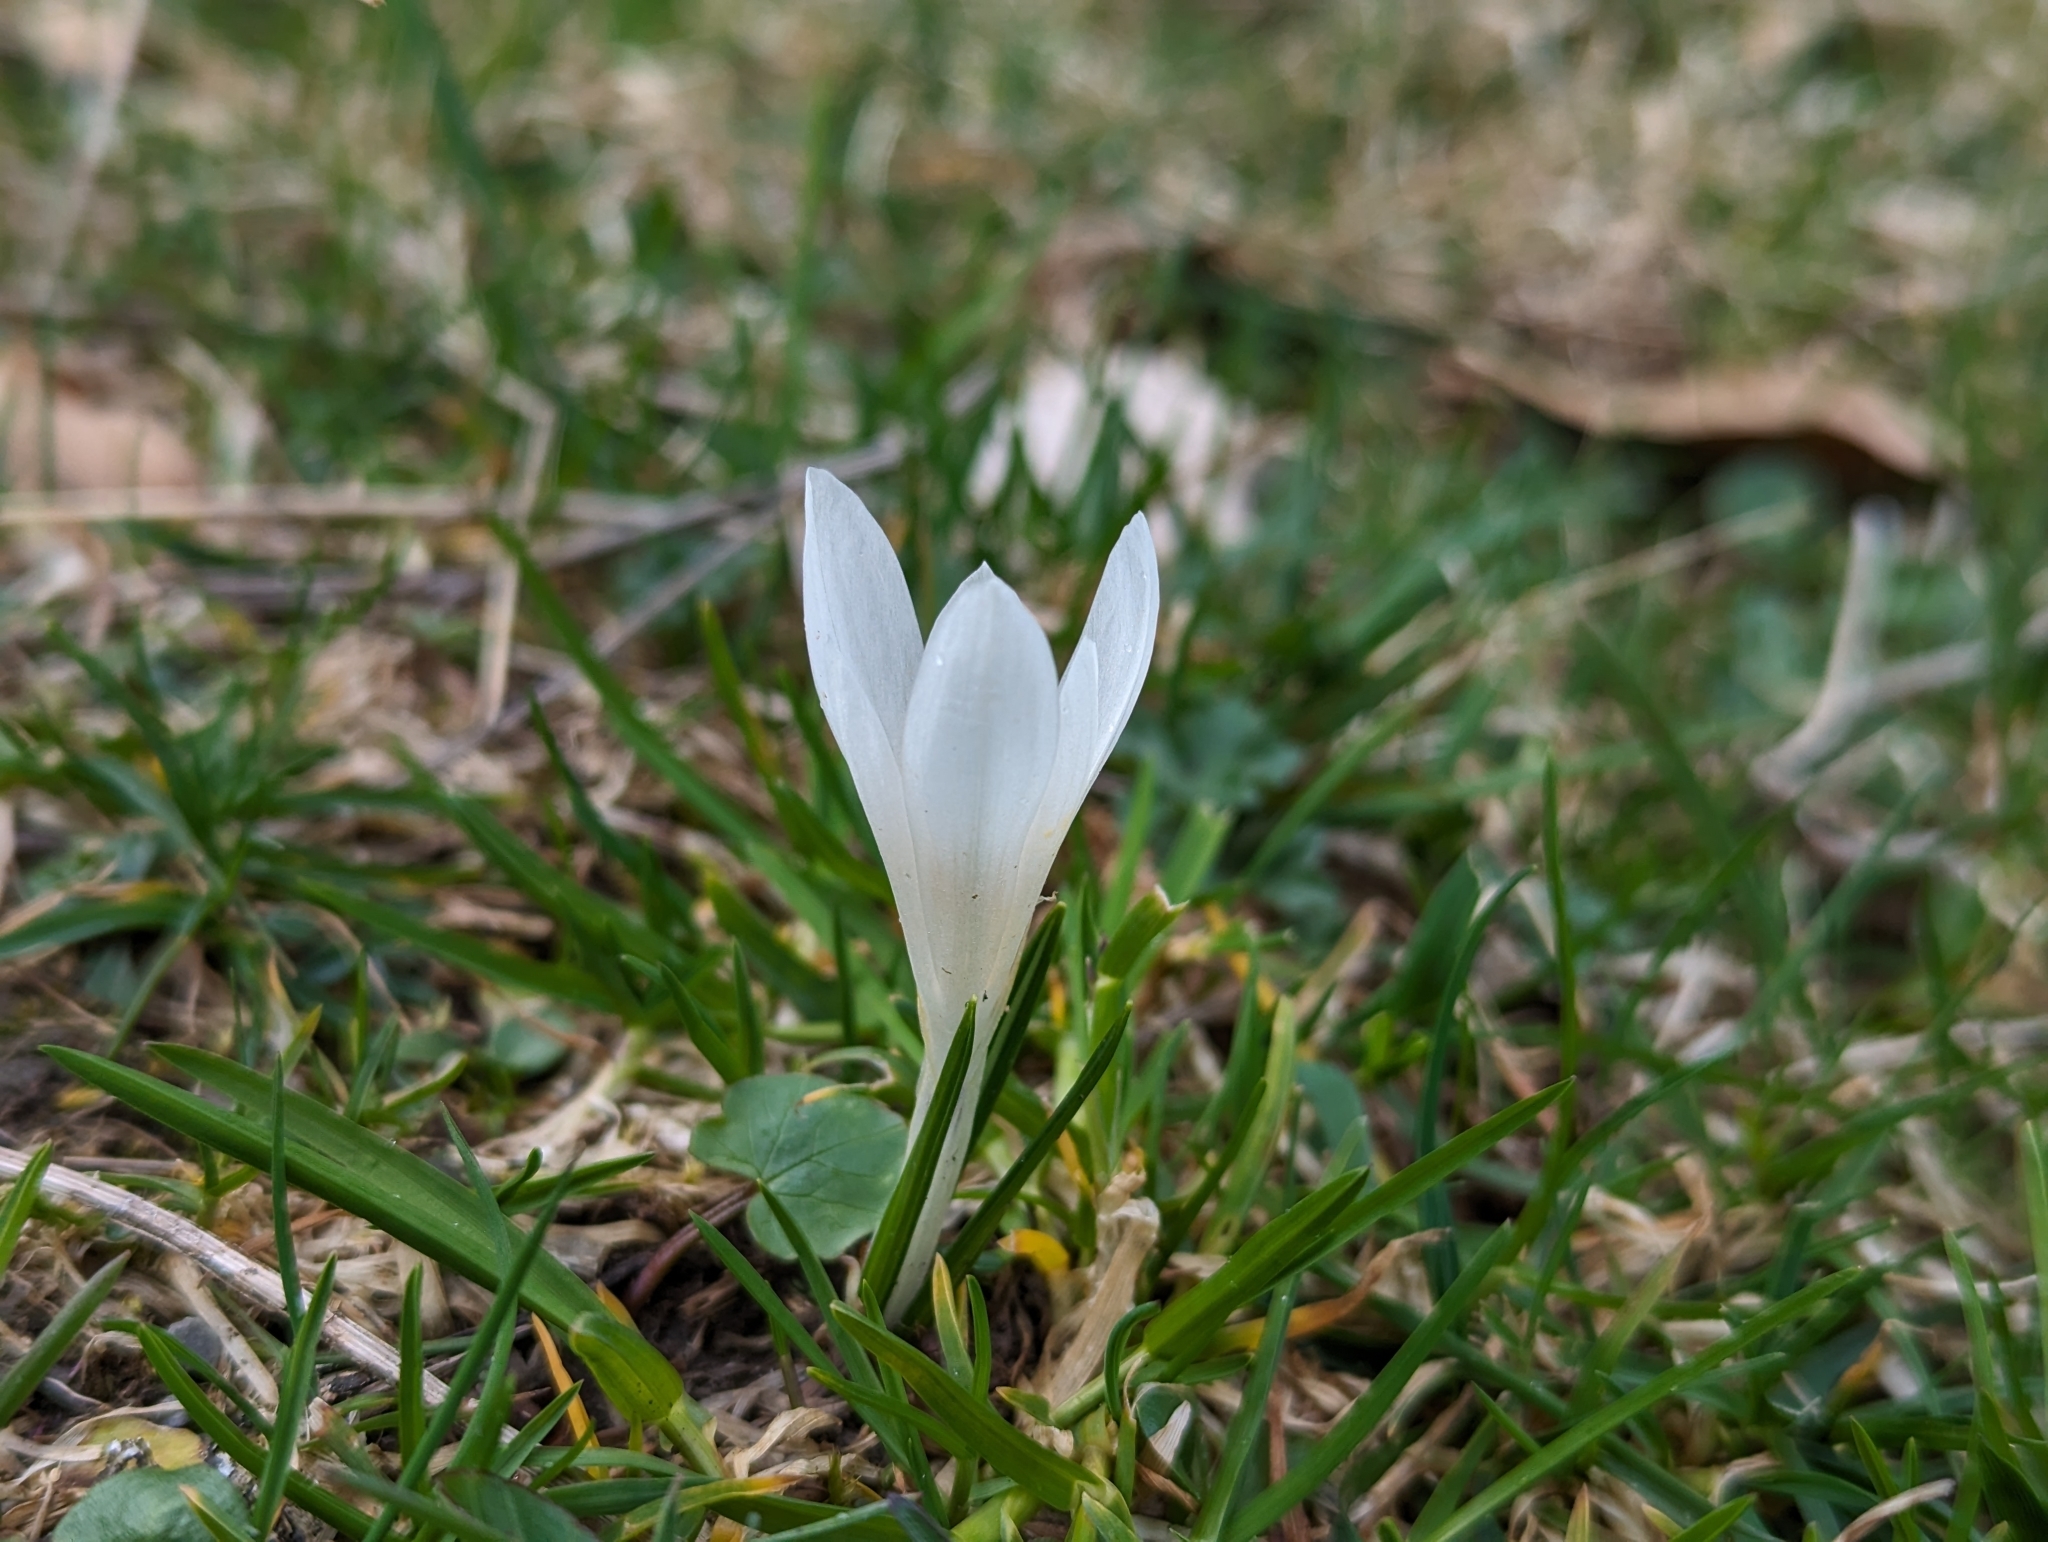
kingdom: Plantae
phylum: Tracheophyta
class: Liliopsida
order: Asparagales
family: Iridaceae
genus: Crocus
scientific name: Crocus vernus
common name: Spring crocus
